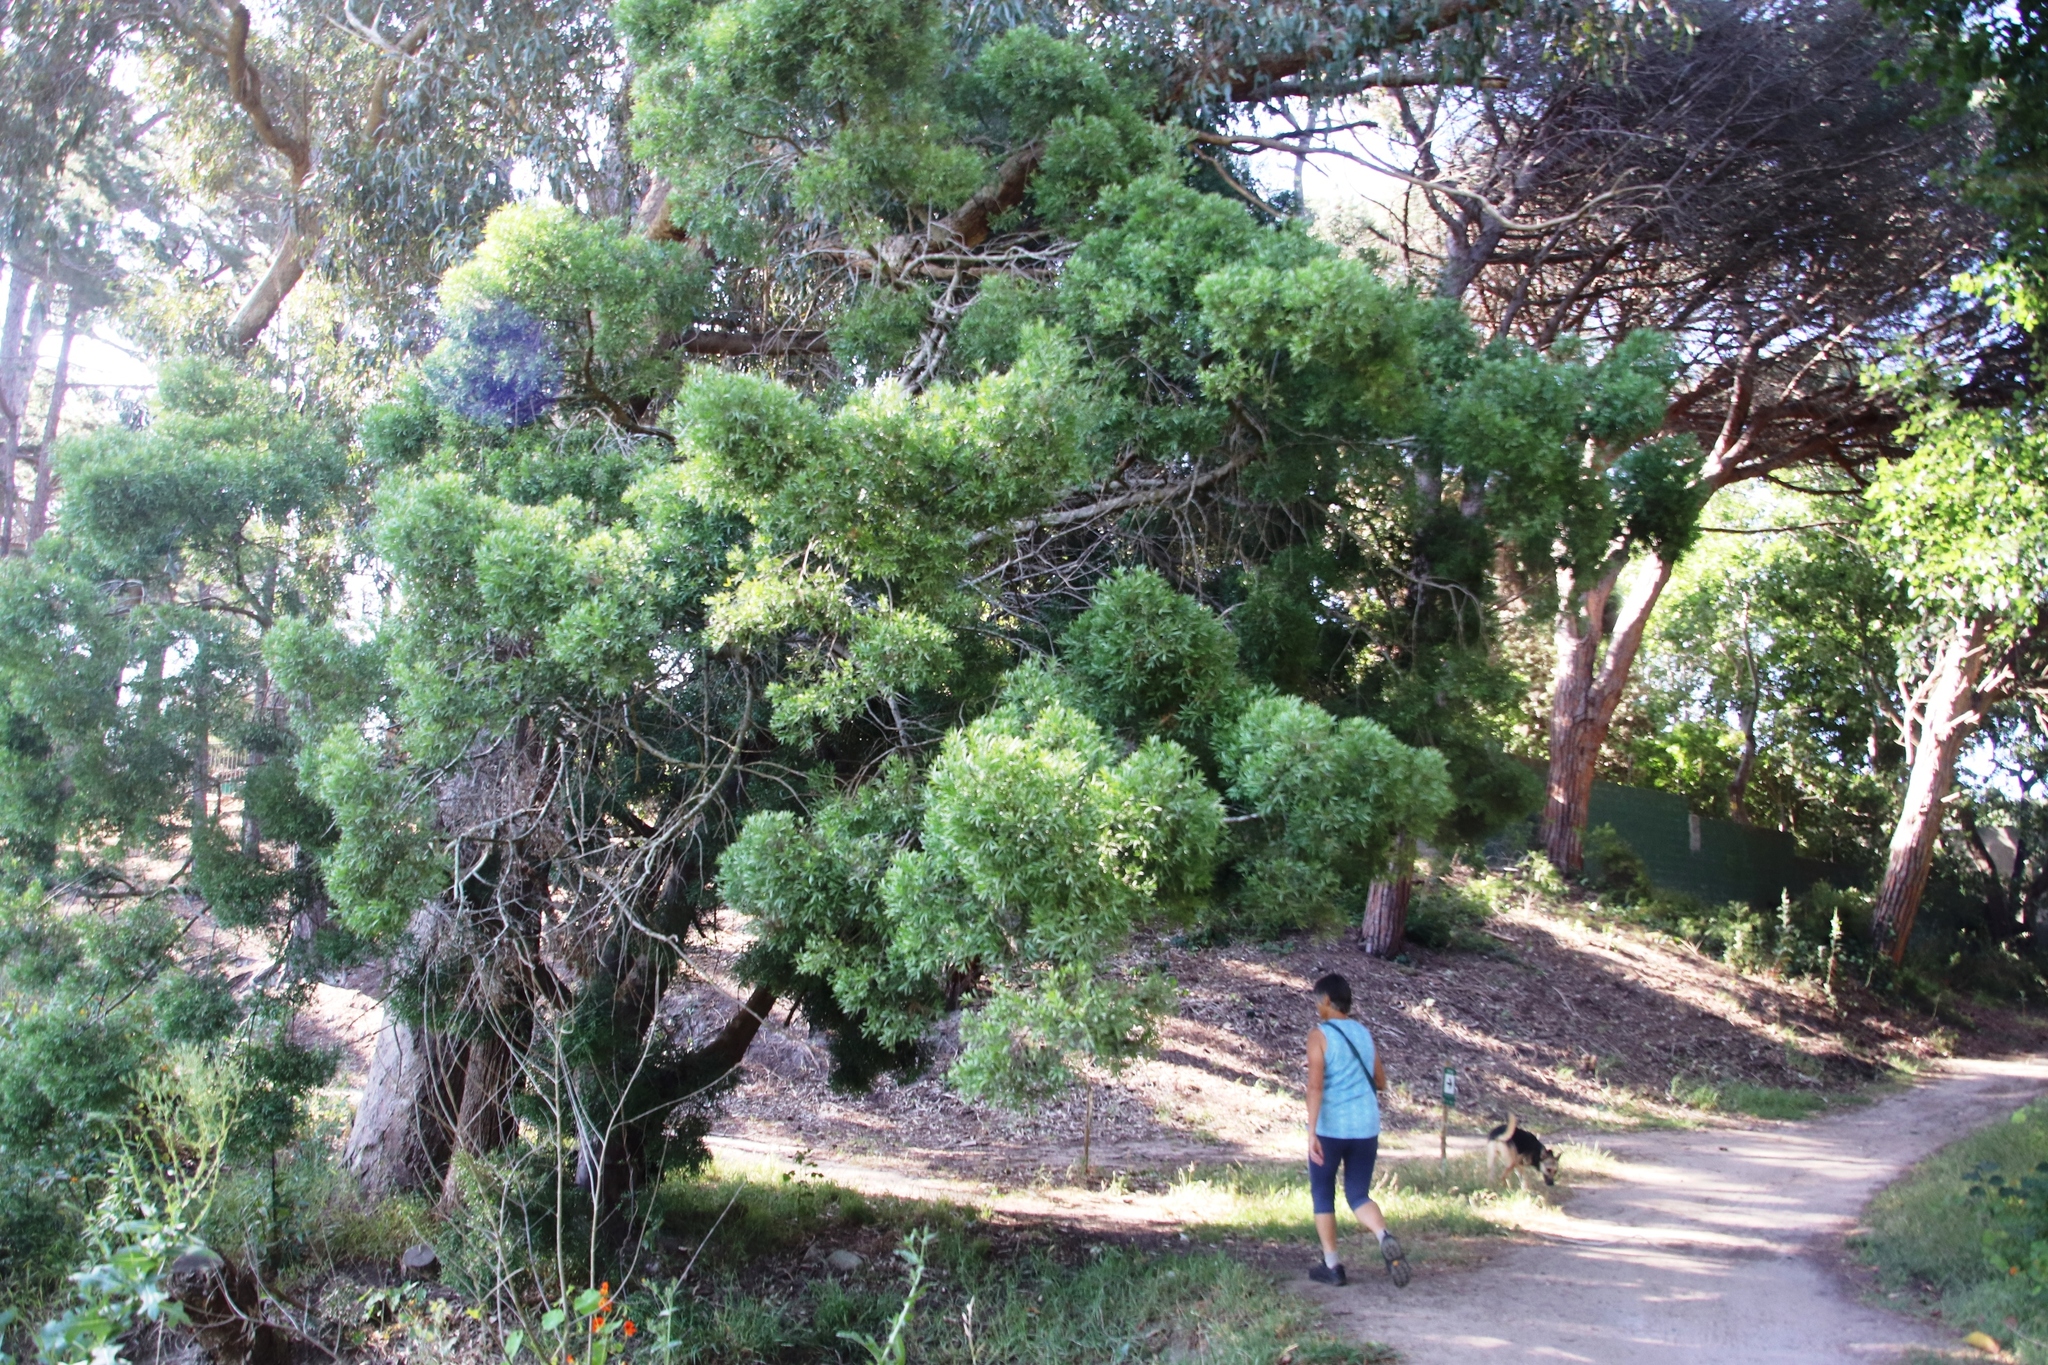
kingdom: Plantae
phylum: Tracheophyta
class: Pinopsida
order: Pinales
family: Podocarpaceae
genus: Afrocarpus
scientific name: Afrocarpus falcatus
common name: Bastard yellowwood
